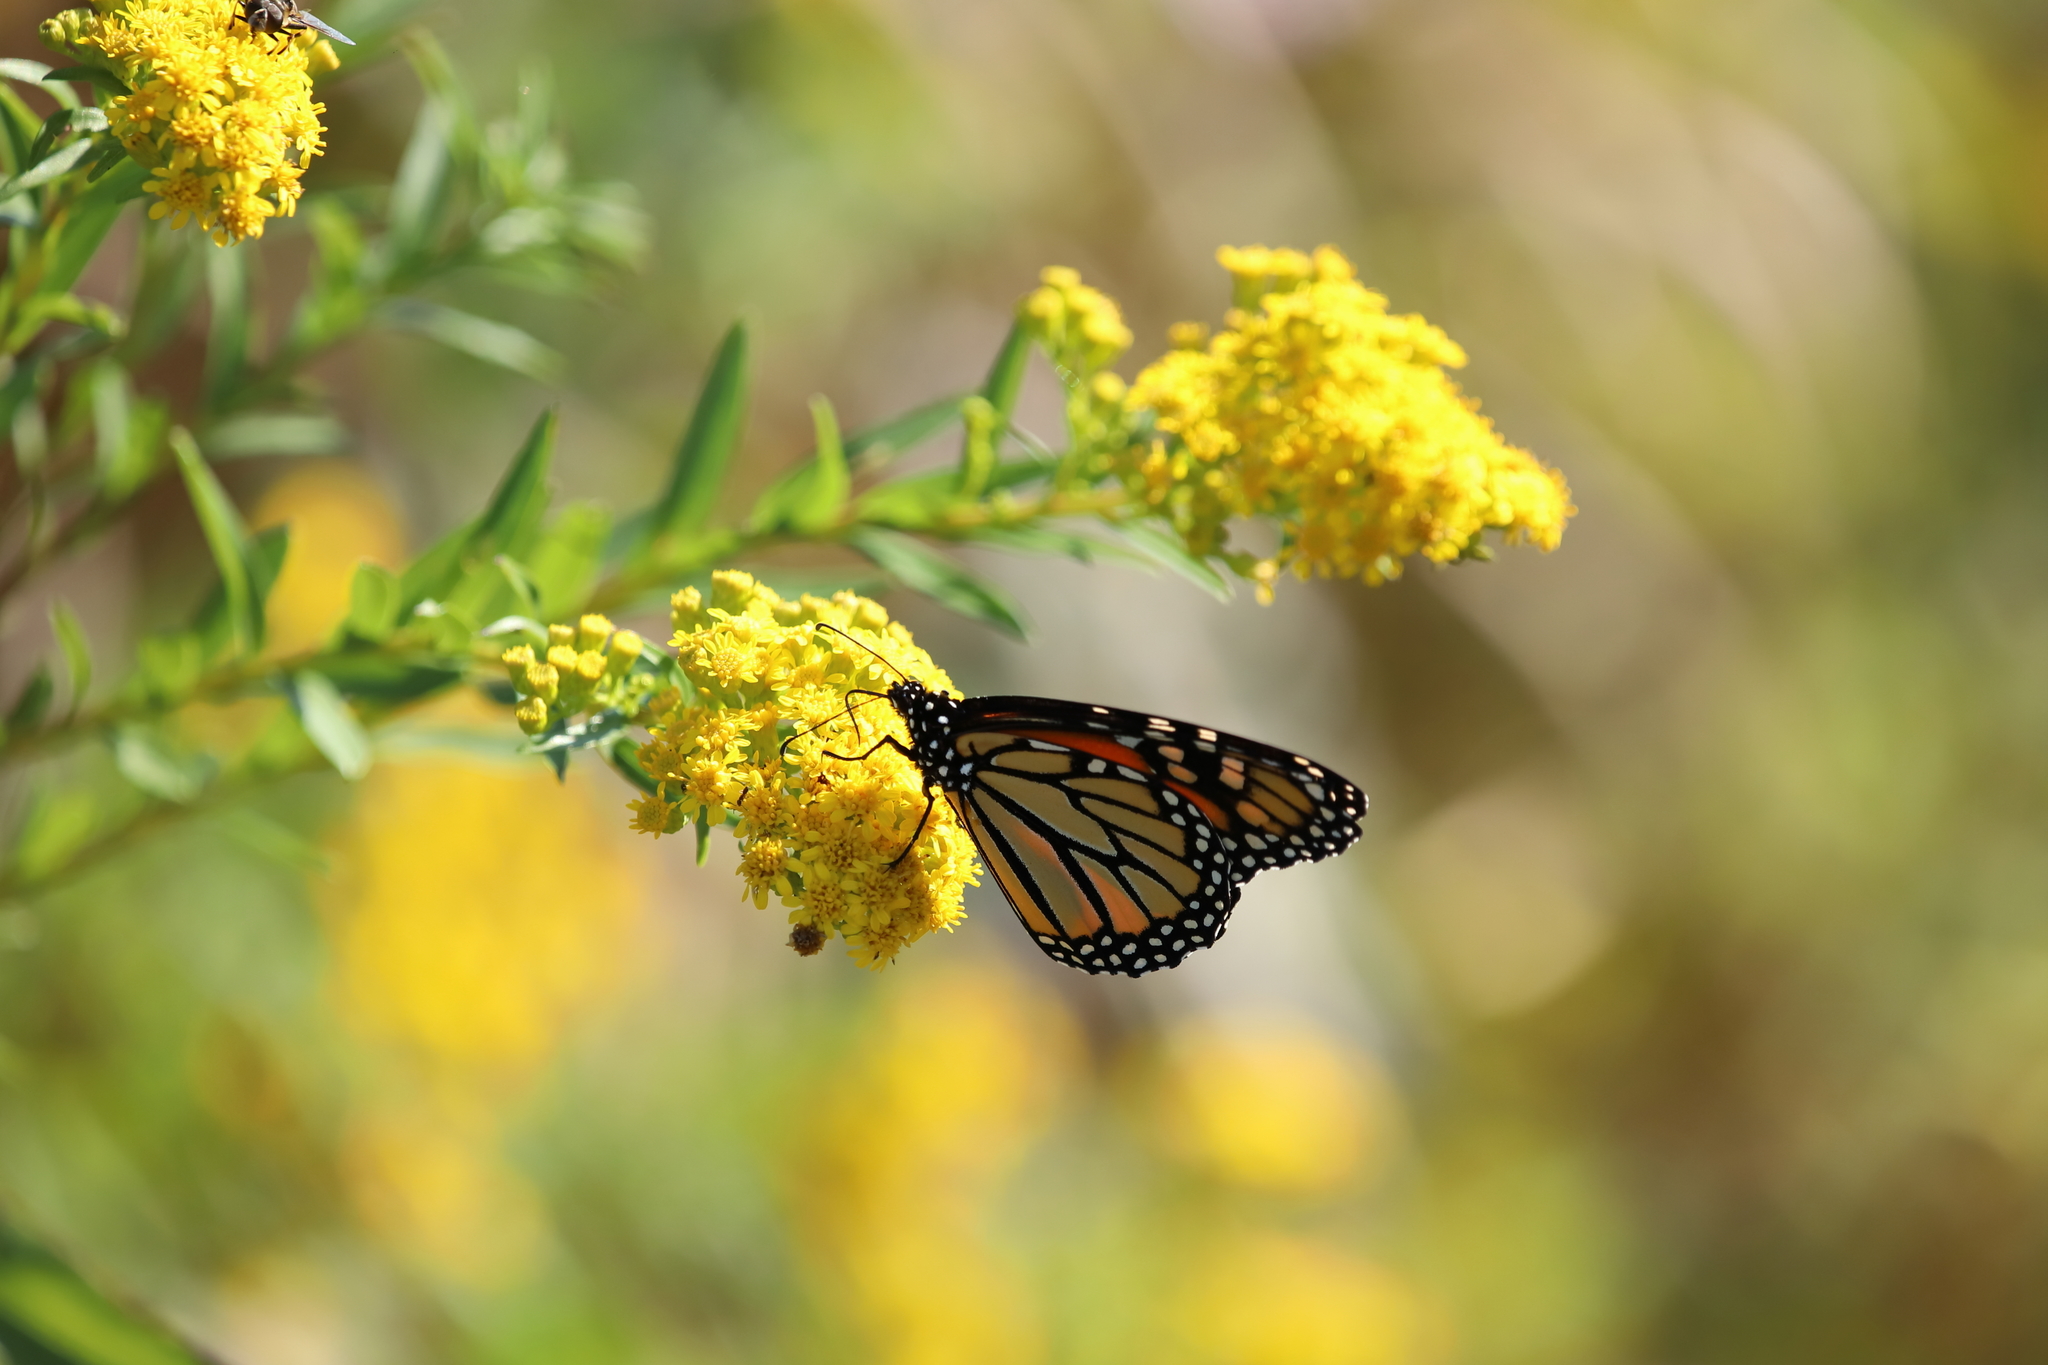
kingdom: Animalia
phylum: Arthropoda
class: Insecta
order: Lepidoptera
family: Nymphalidae
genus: Danaus
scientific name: Danaus plexippus
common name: Monarch
